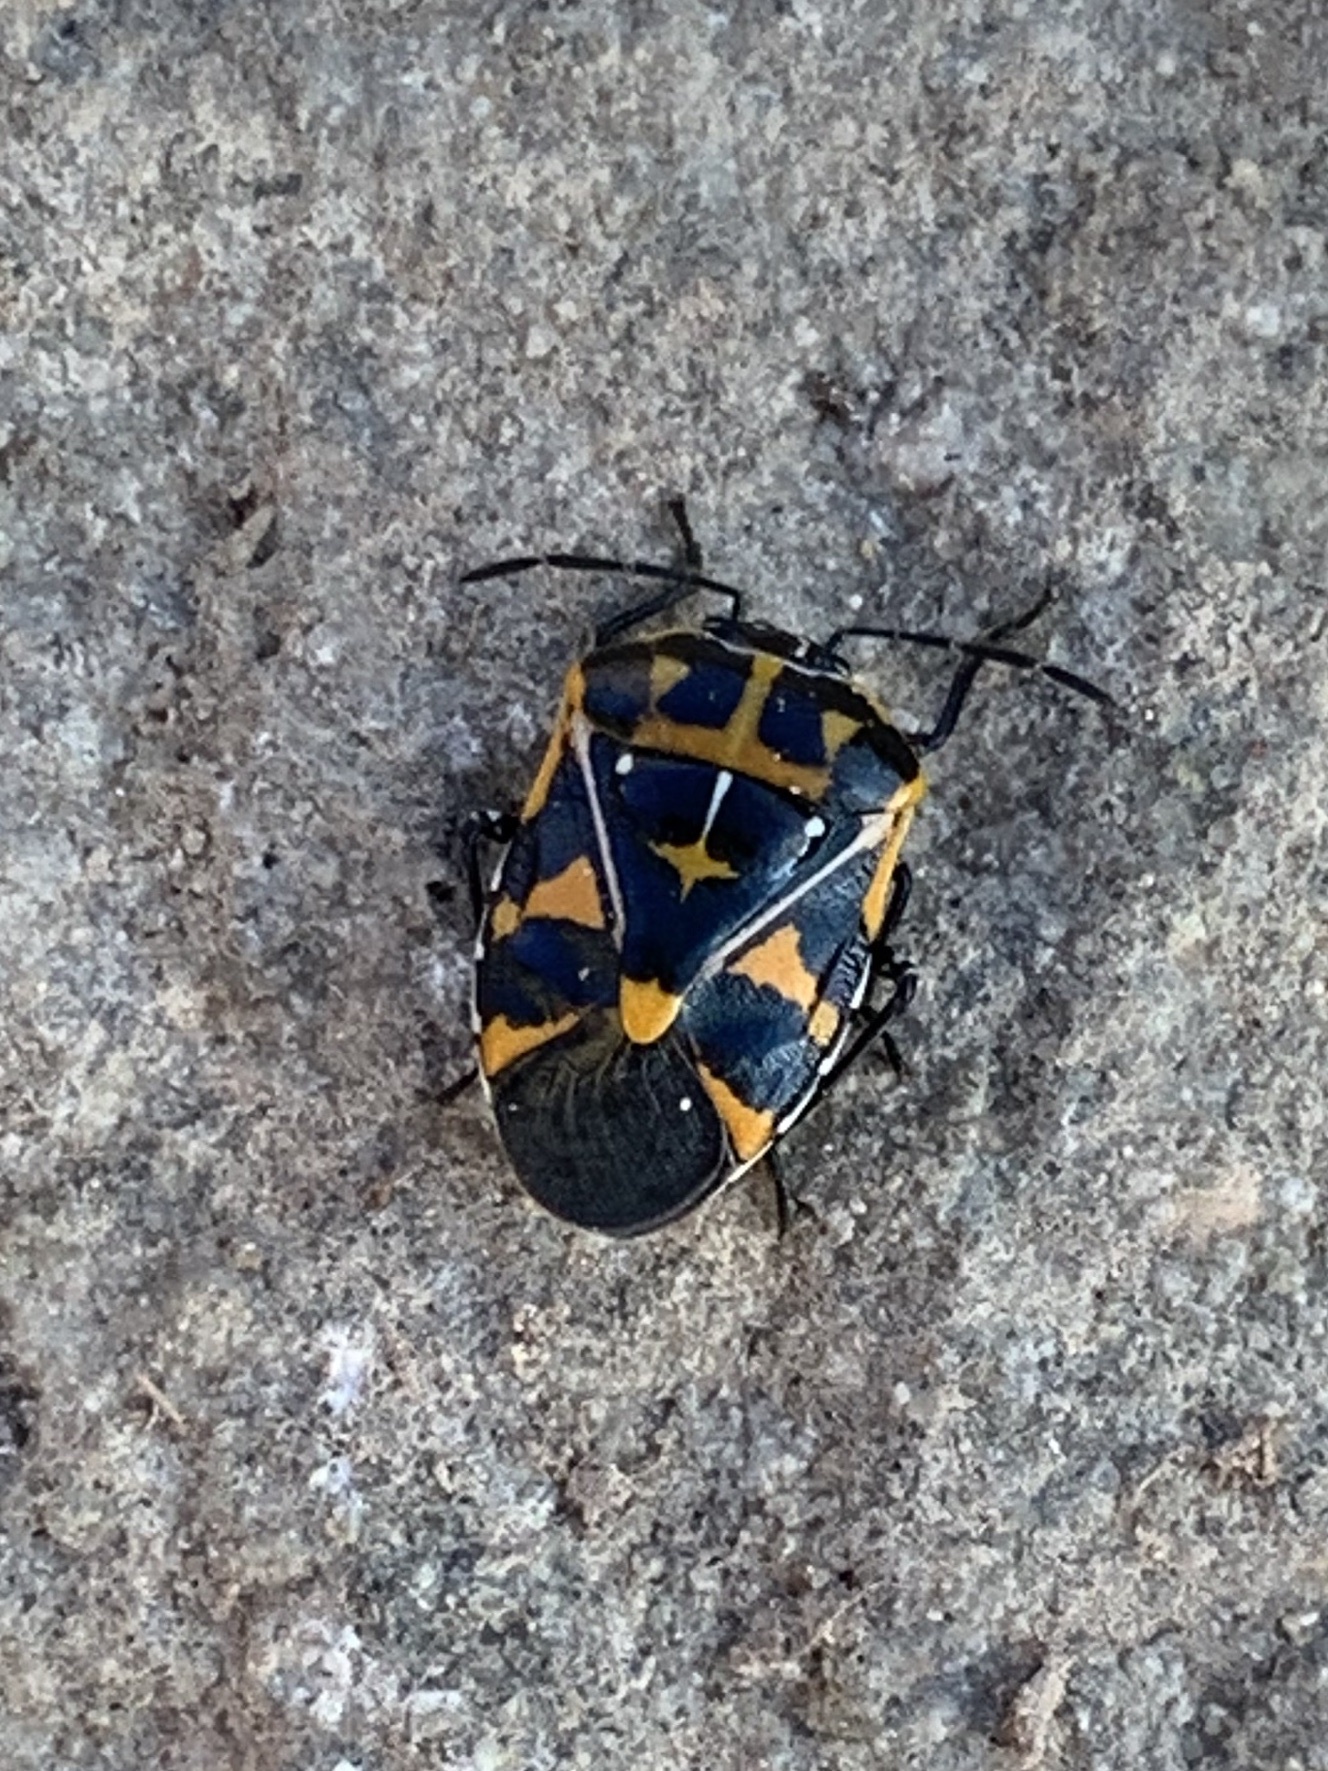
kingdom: Animalia
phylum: Arthropoda
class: Insecta
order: Hemiptera
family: Pentatomidae
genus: Murgantia
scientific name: Murgantia histrionica
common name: Harlequin bug
